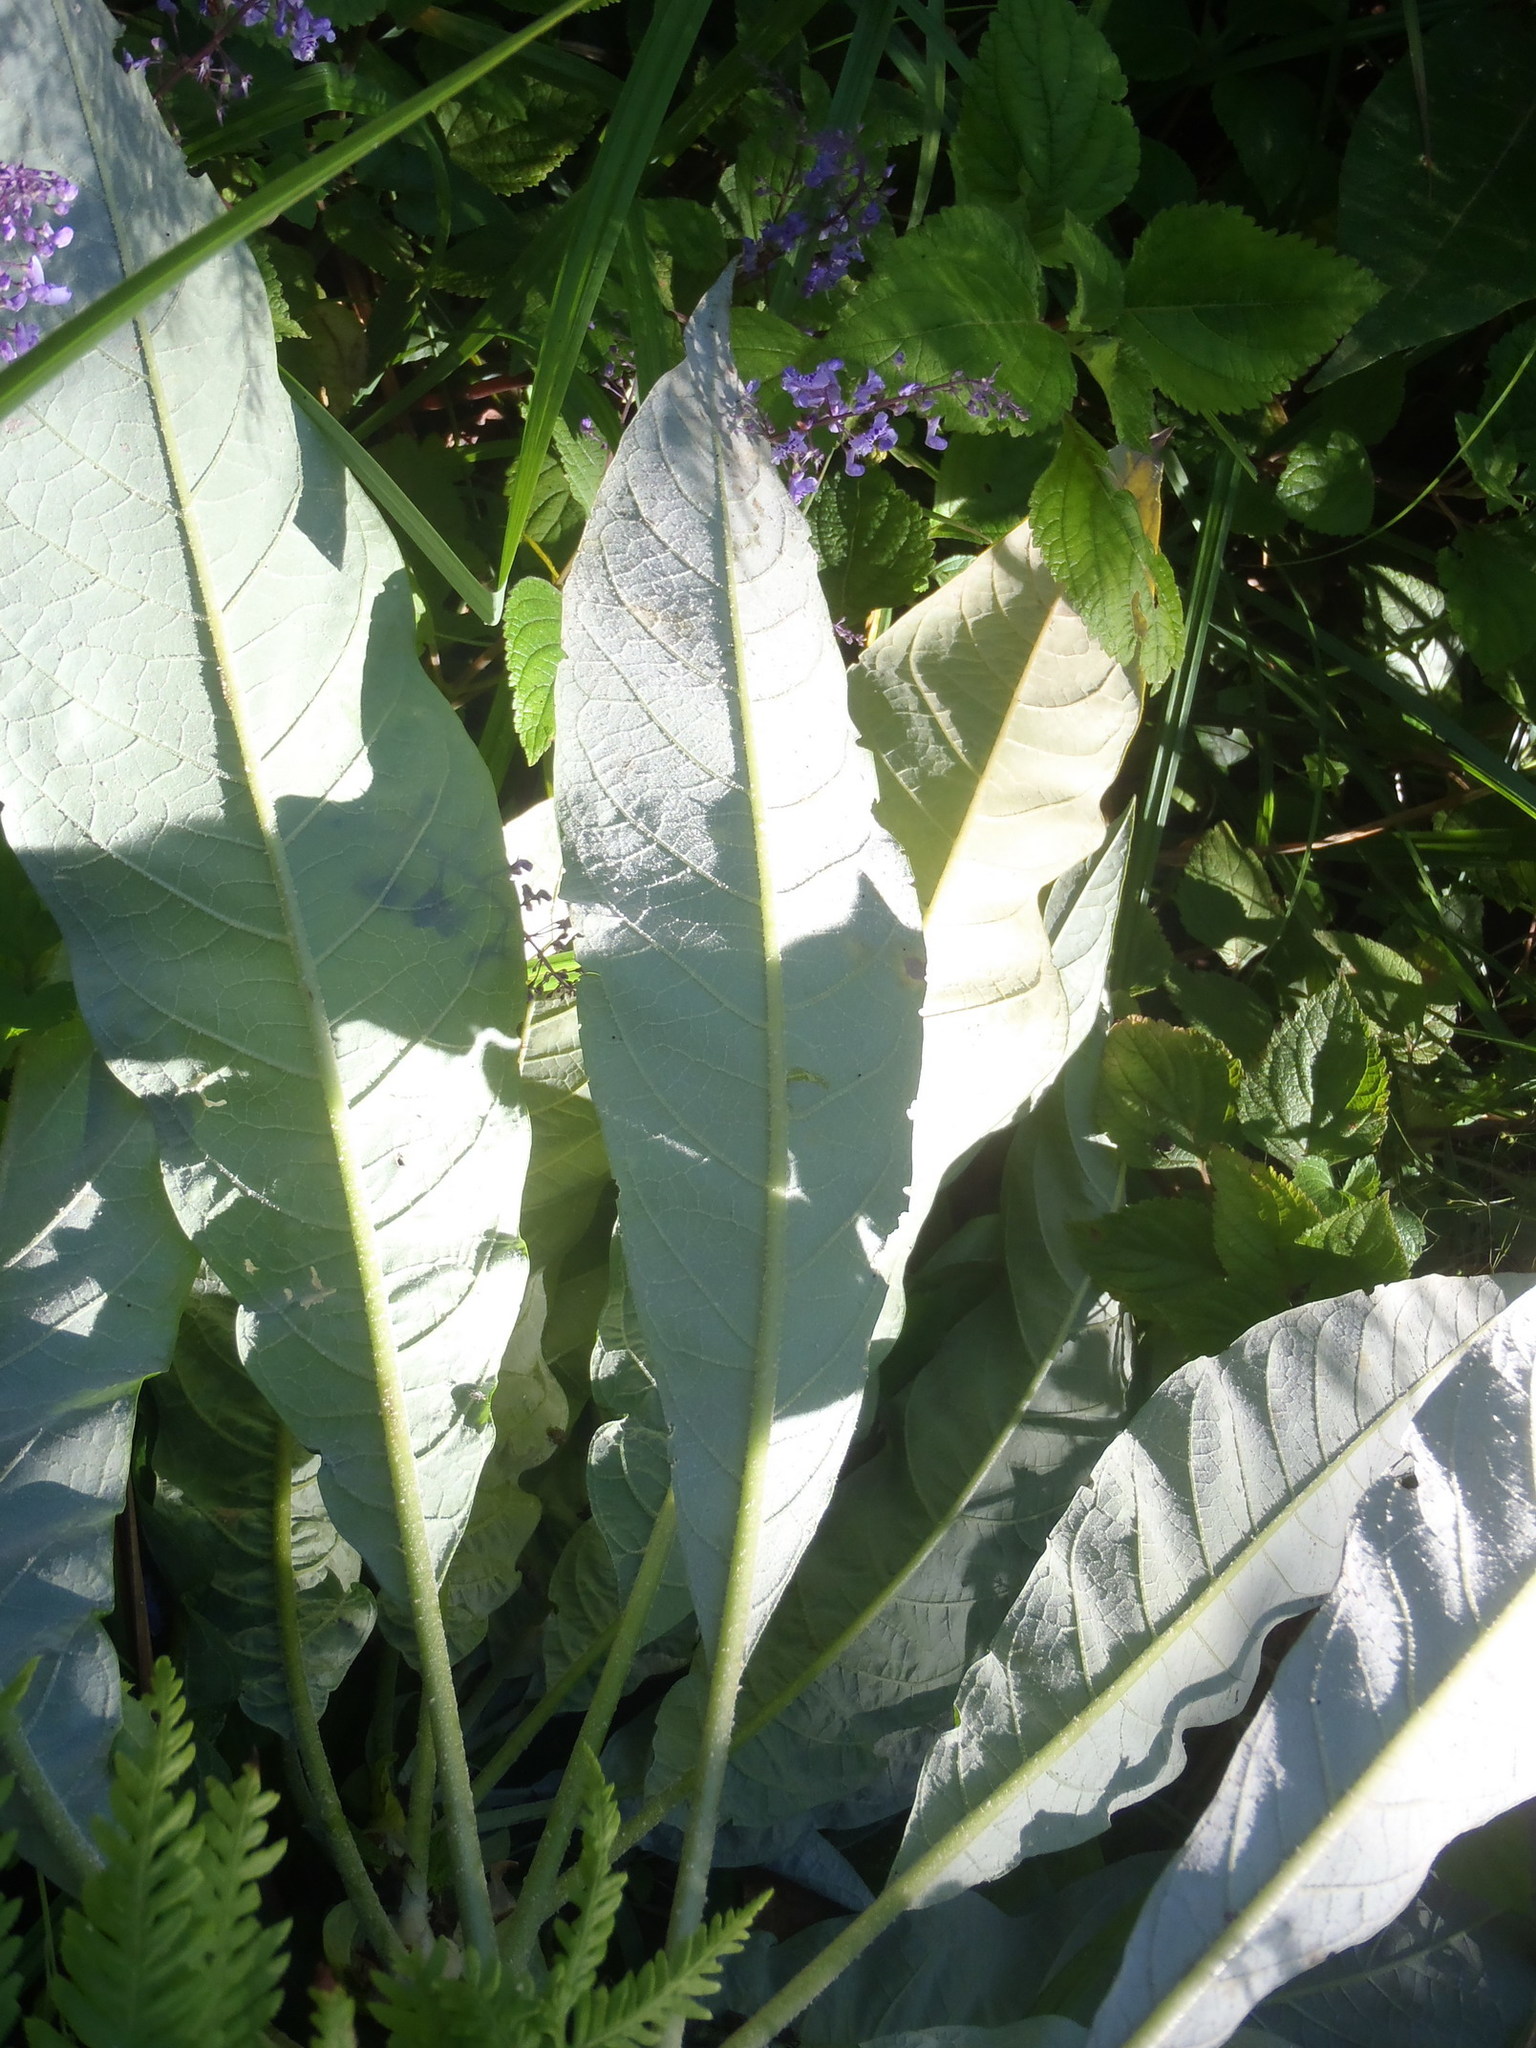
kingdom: Plantae
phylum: Tracheophyta
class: Magnoliopsida
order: Solanales
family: Solanaceae
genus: Solanum
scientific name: Solanum mauritianum
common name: Earleaf nightshade
